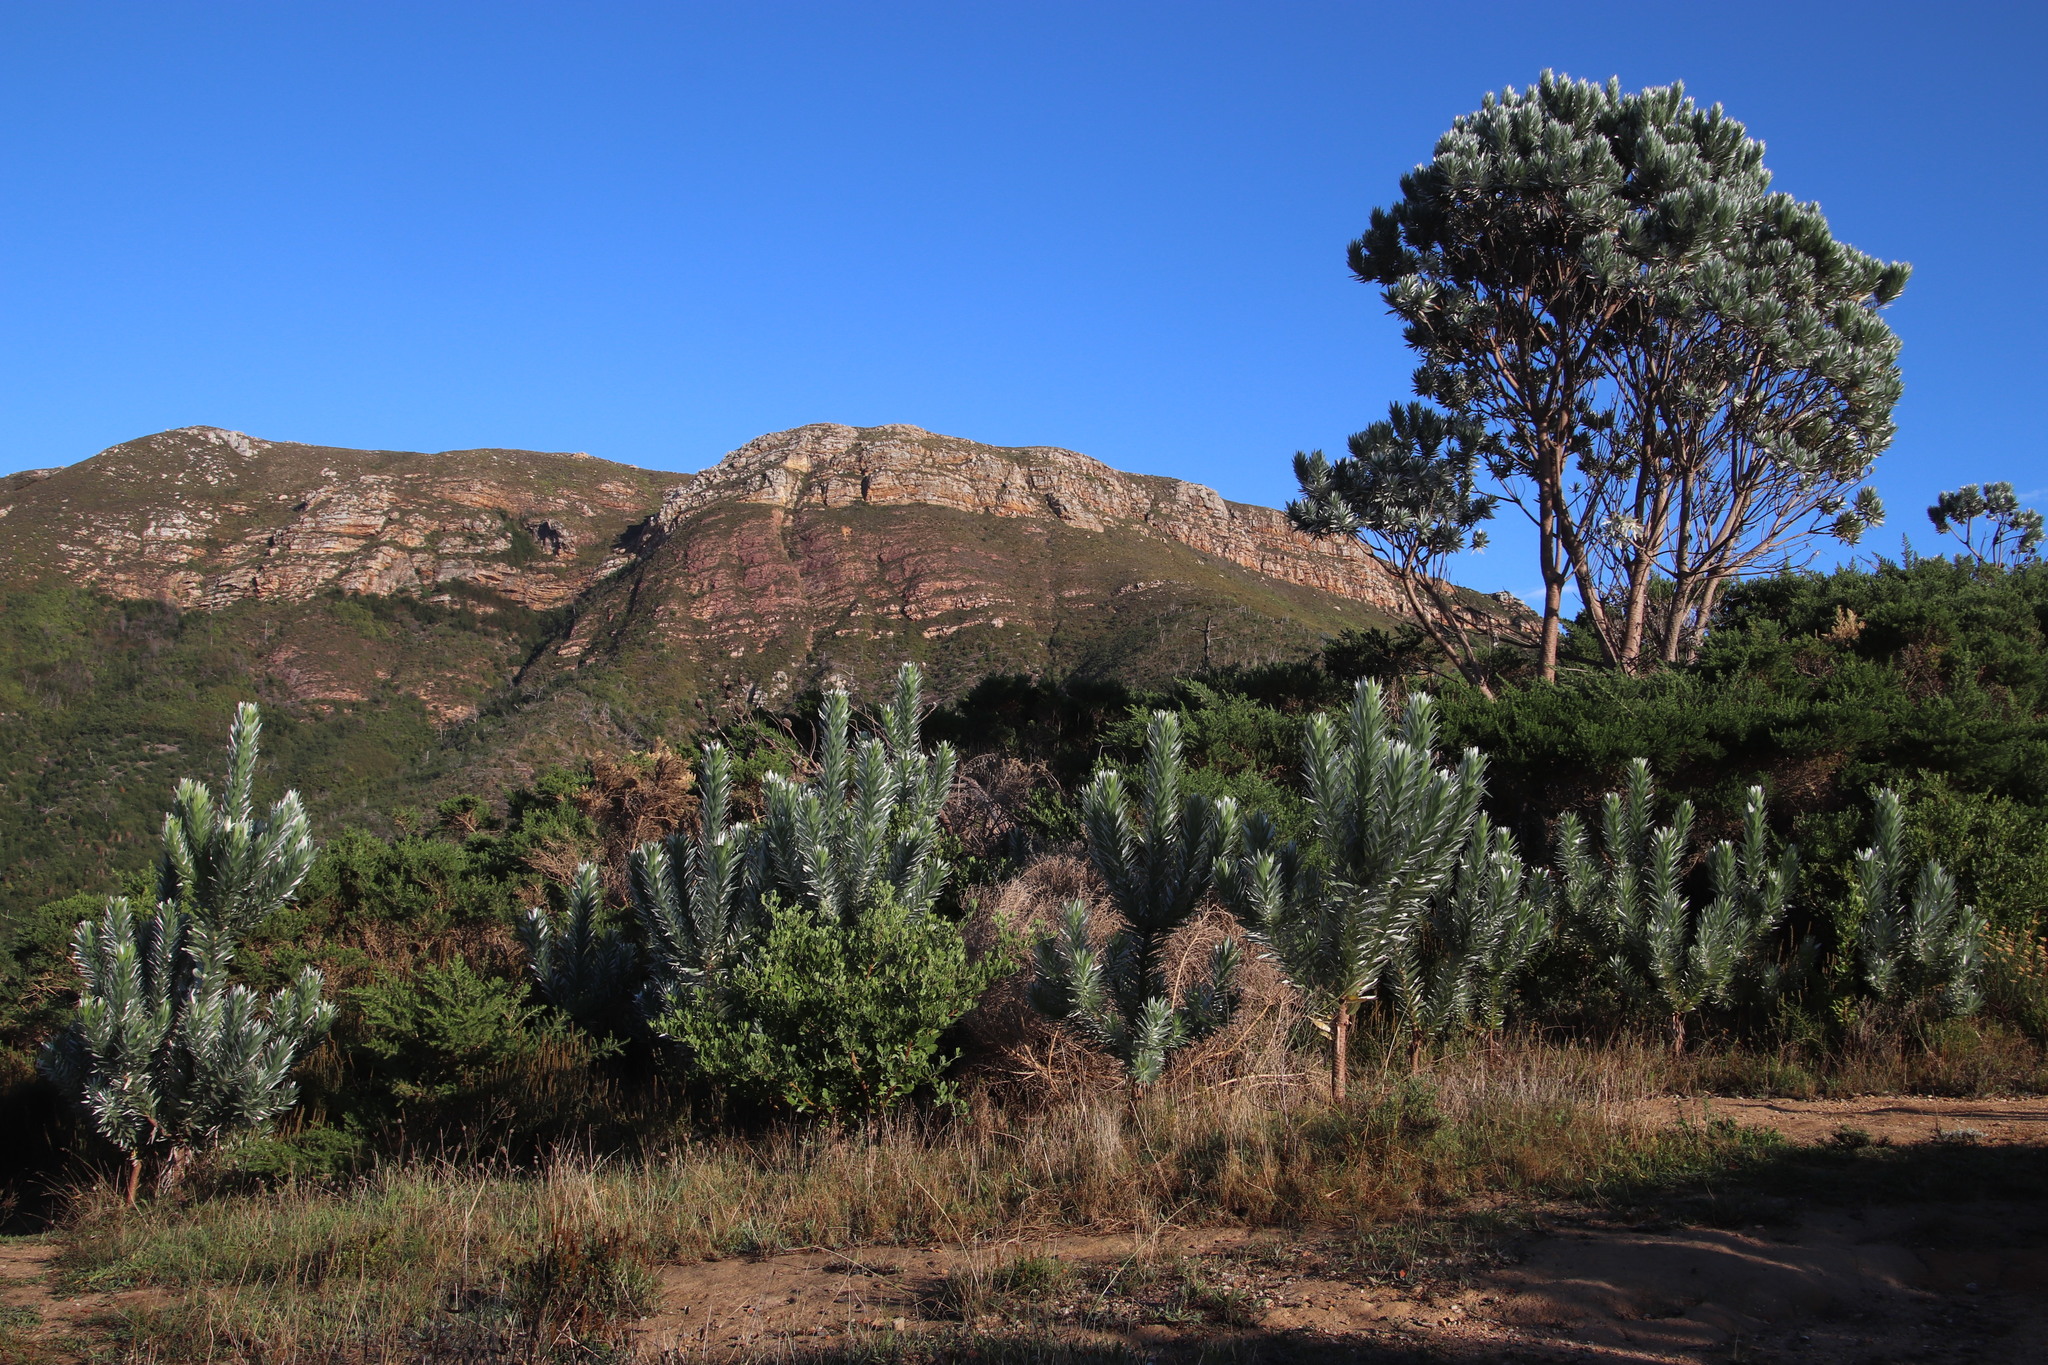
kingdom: Plantae
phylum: Tracheophyta
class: Magnoliopsida
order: Proteales
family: Proteaceae
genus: Leucadendron
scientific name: Leucadendron argenteum
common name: Cape silver tree
